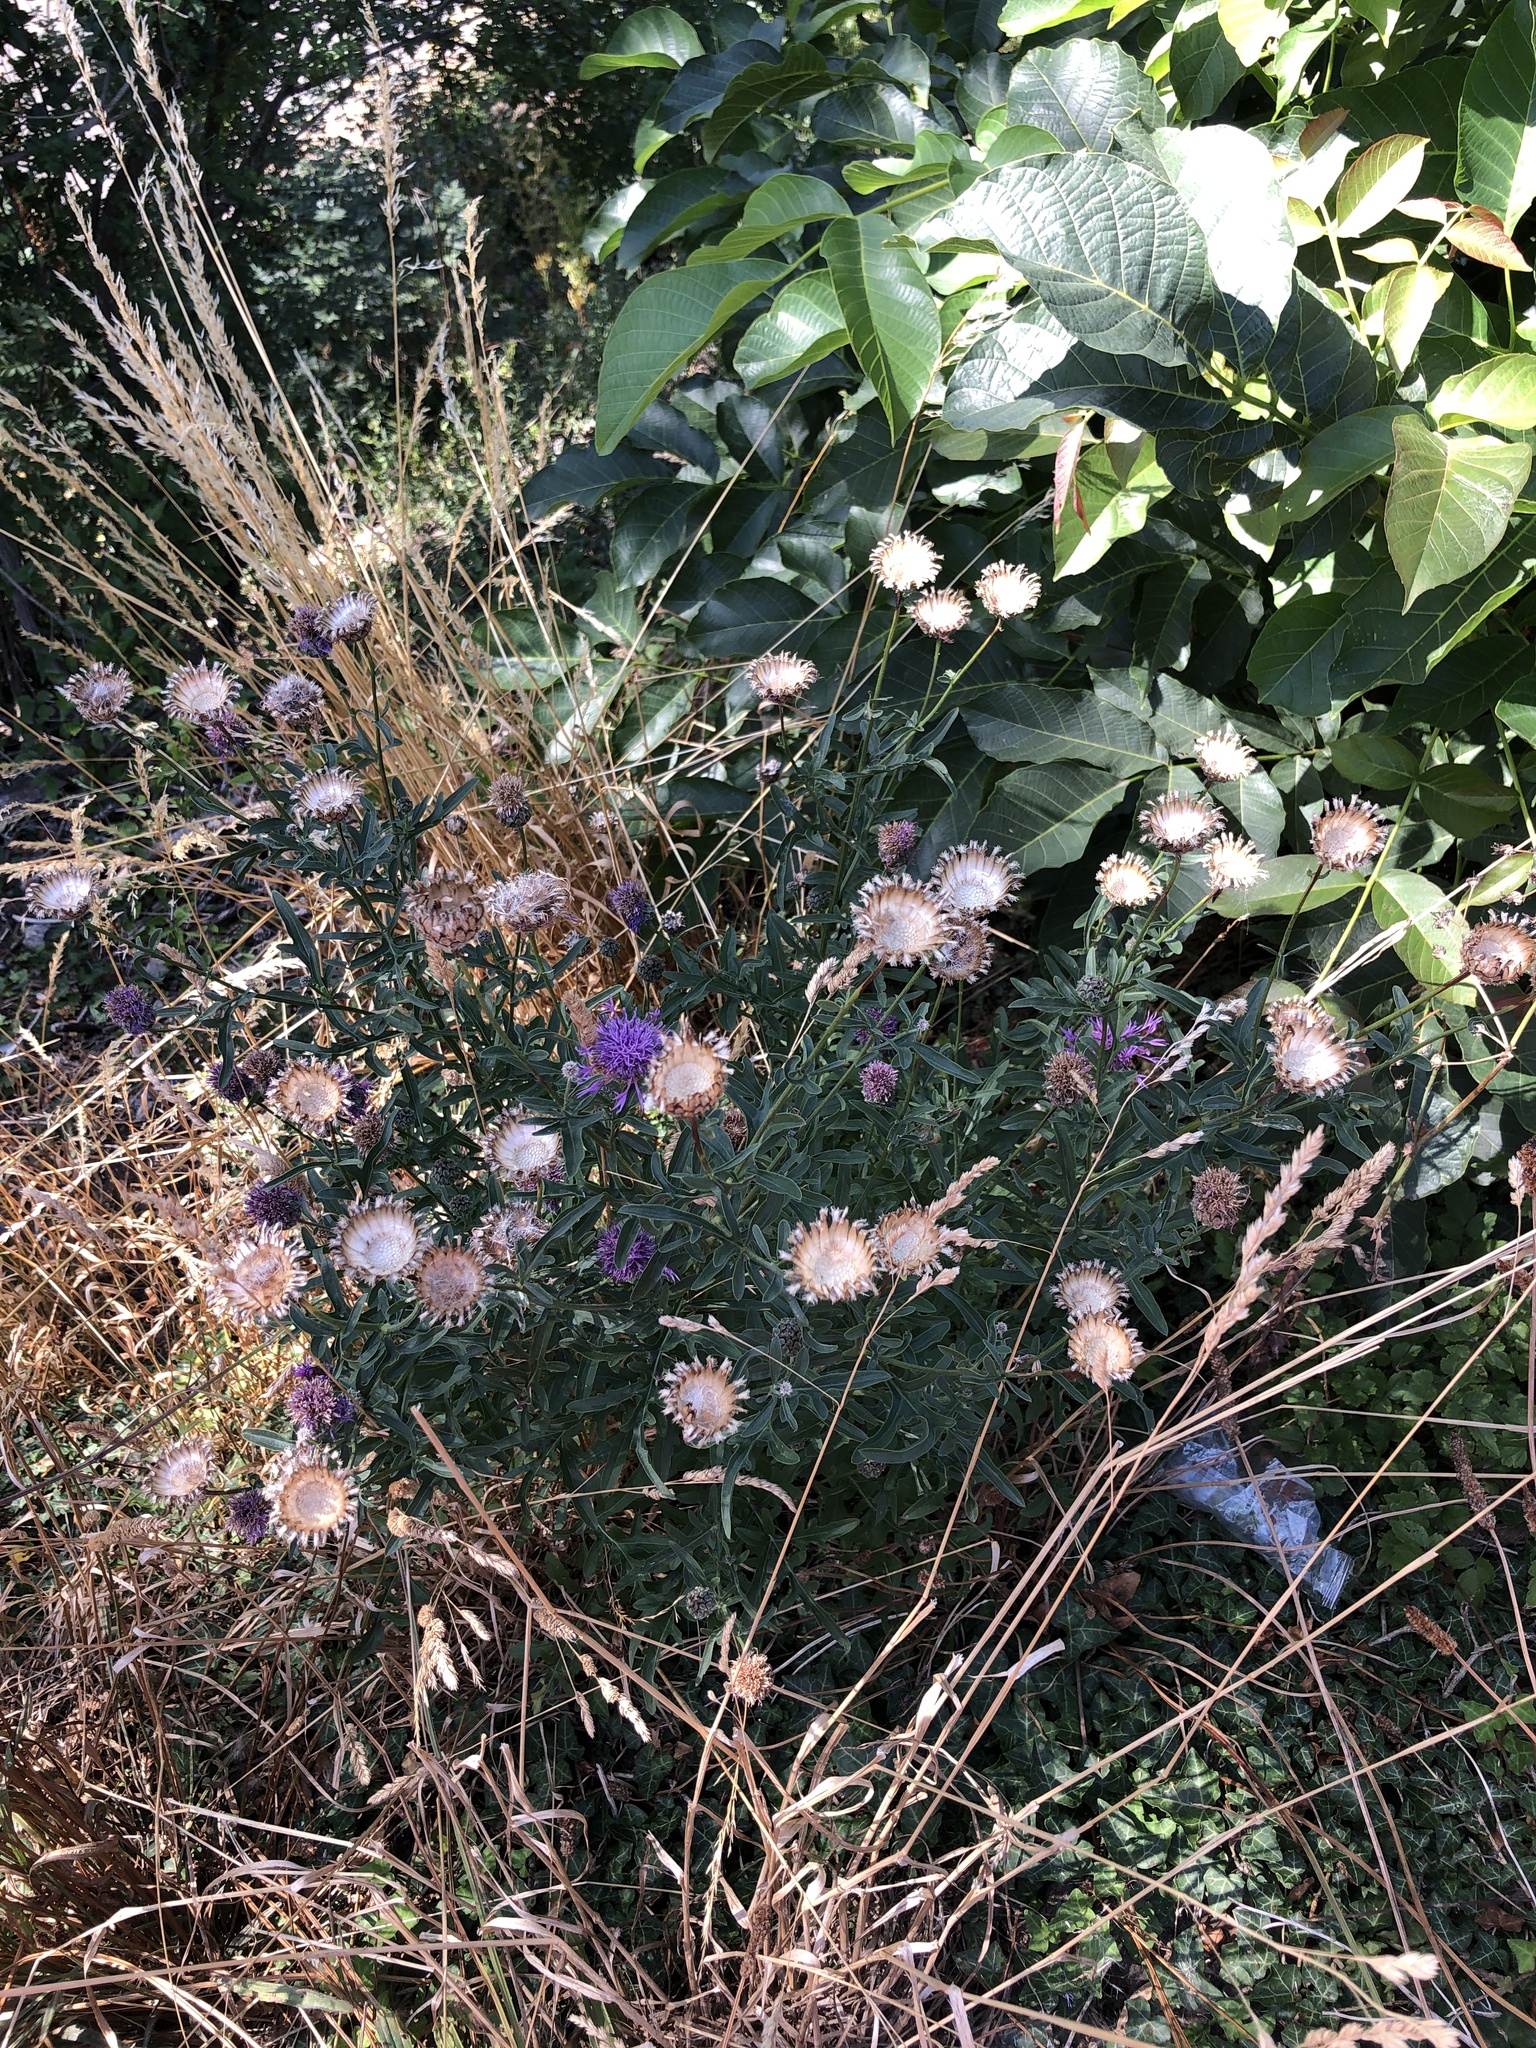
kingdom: Plantae
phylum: Tracheophyta
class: Magnoliopsida
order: Asterales
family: Asteraceae
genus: Centaurea
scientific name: Centaurea scabiosa
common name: Greater knapweed
